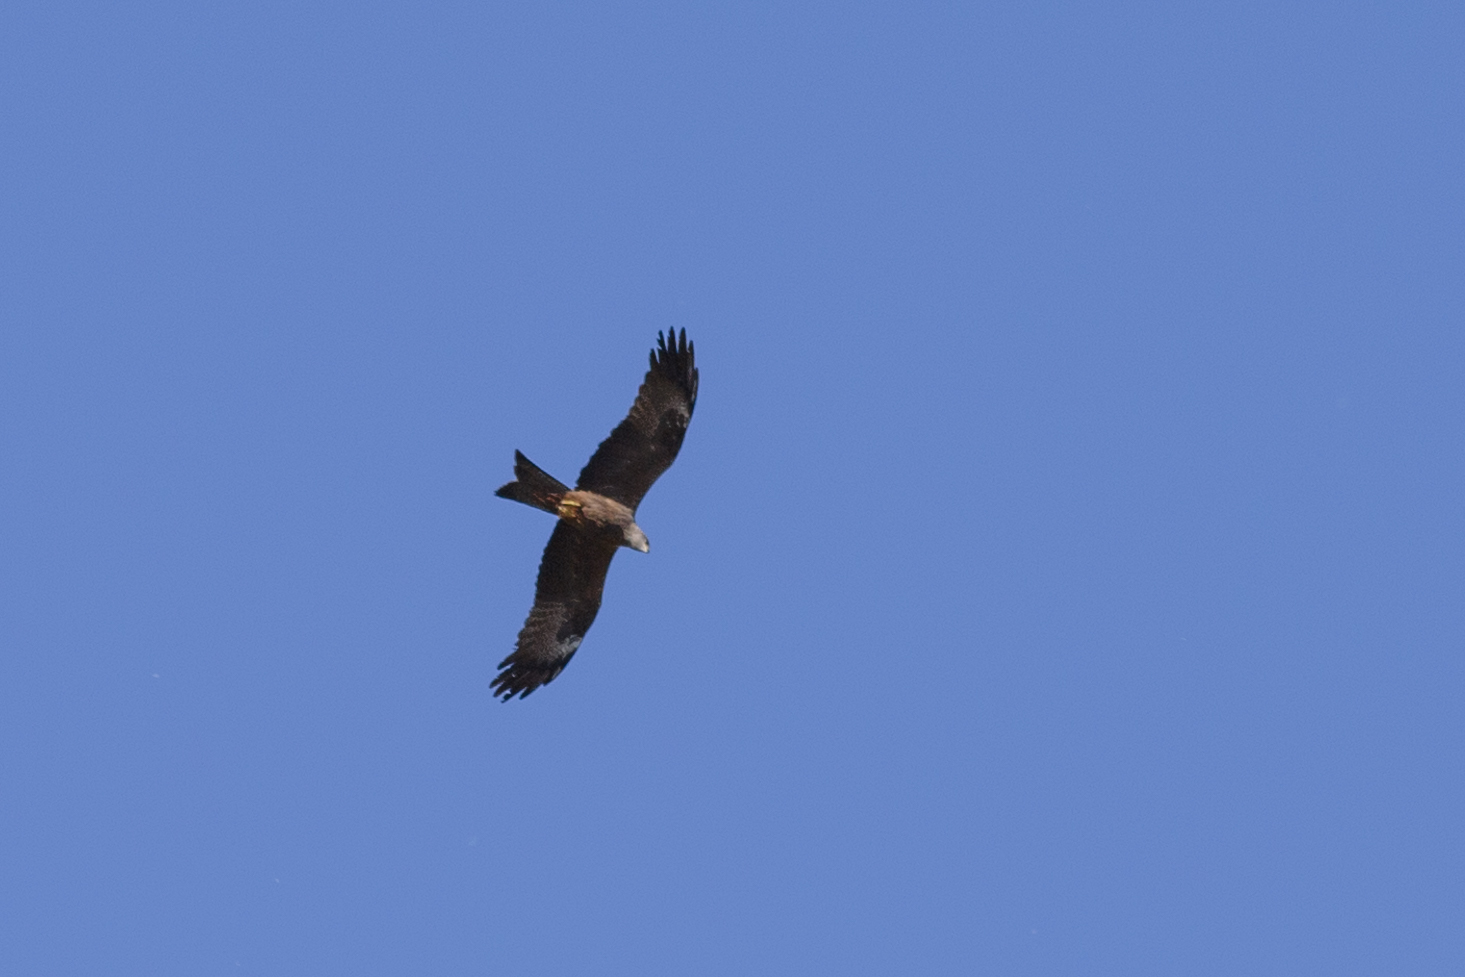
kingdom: Animalia
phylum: Chordata
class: Aves
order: Accipitriformes
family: Accipitridae
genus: Milvus
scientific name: Milvus migrans
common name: Black kite
